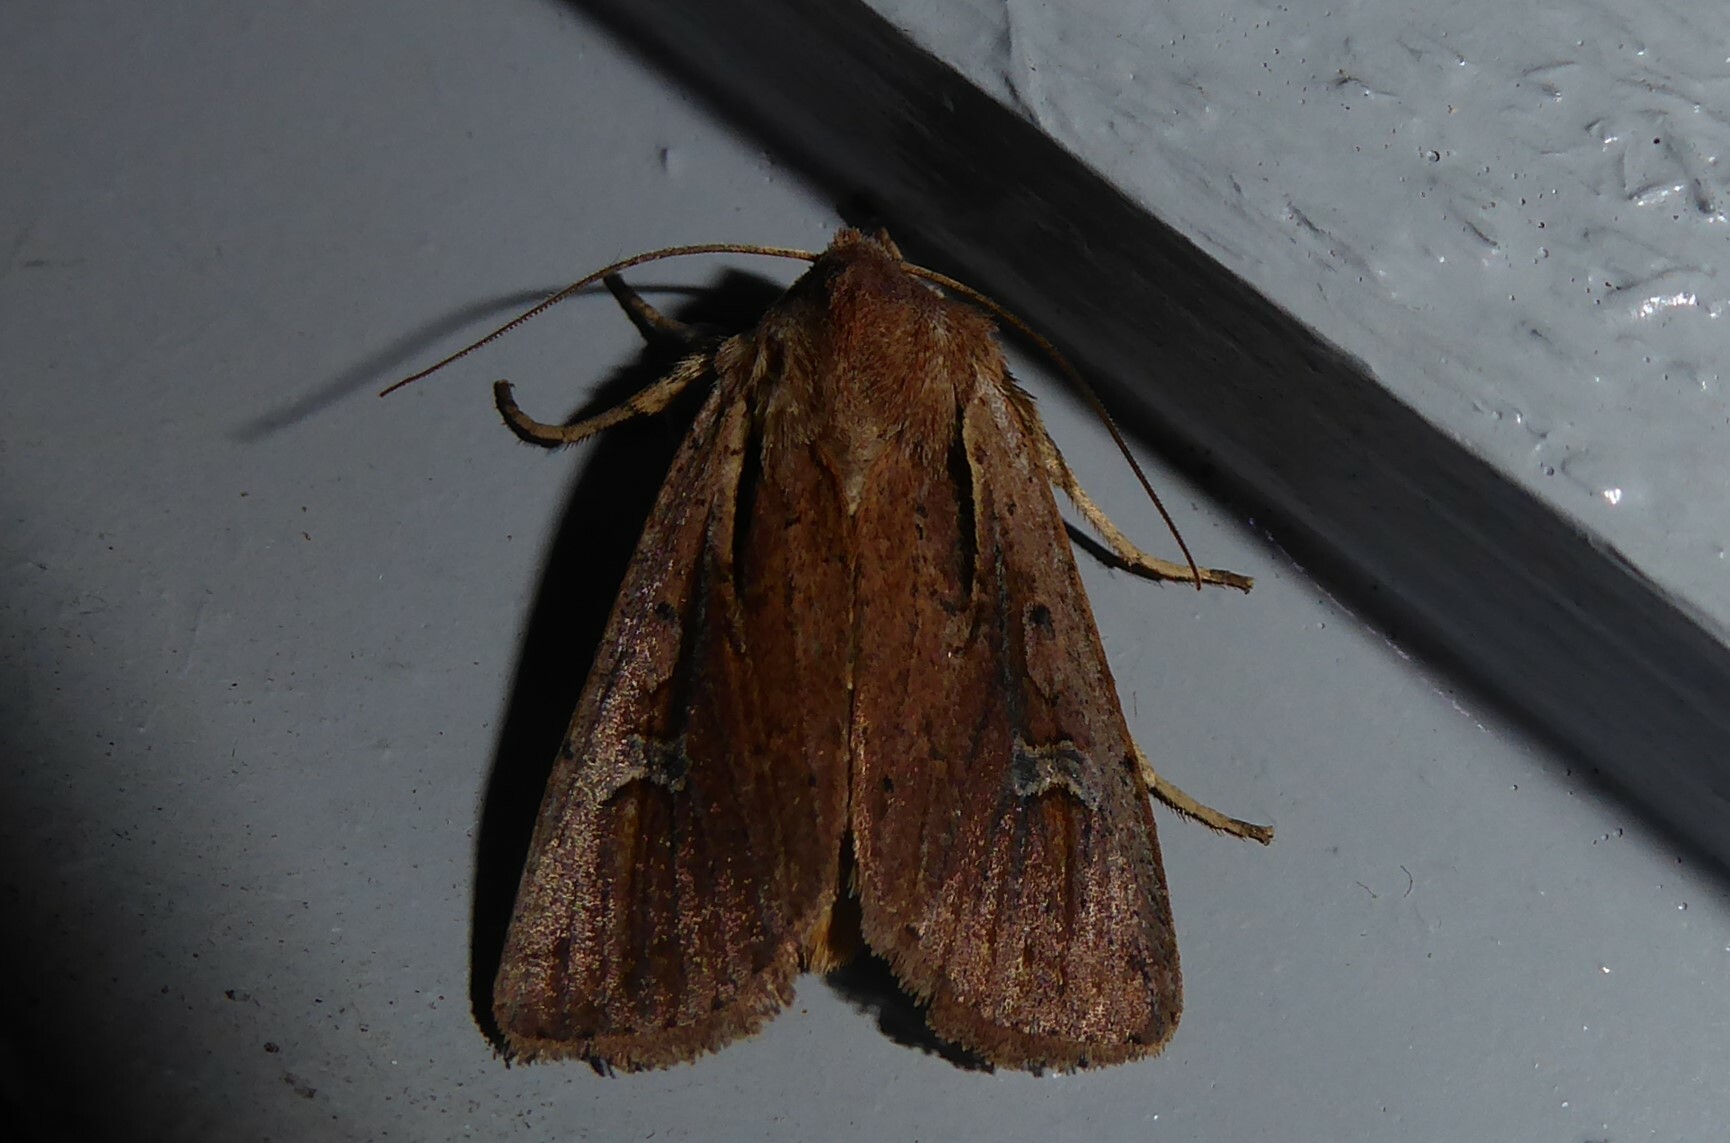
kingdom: Animalia
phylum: Arthropoda
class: Insecta
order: Lepidoptera
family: Noctuidae
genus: Ichneutica
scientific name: Ichneutica atristriga
